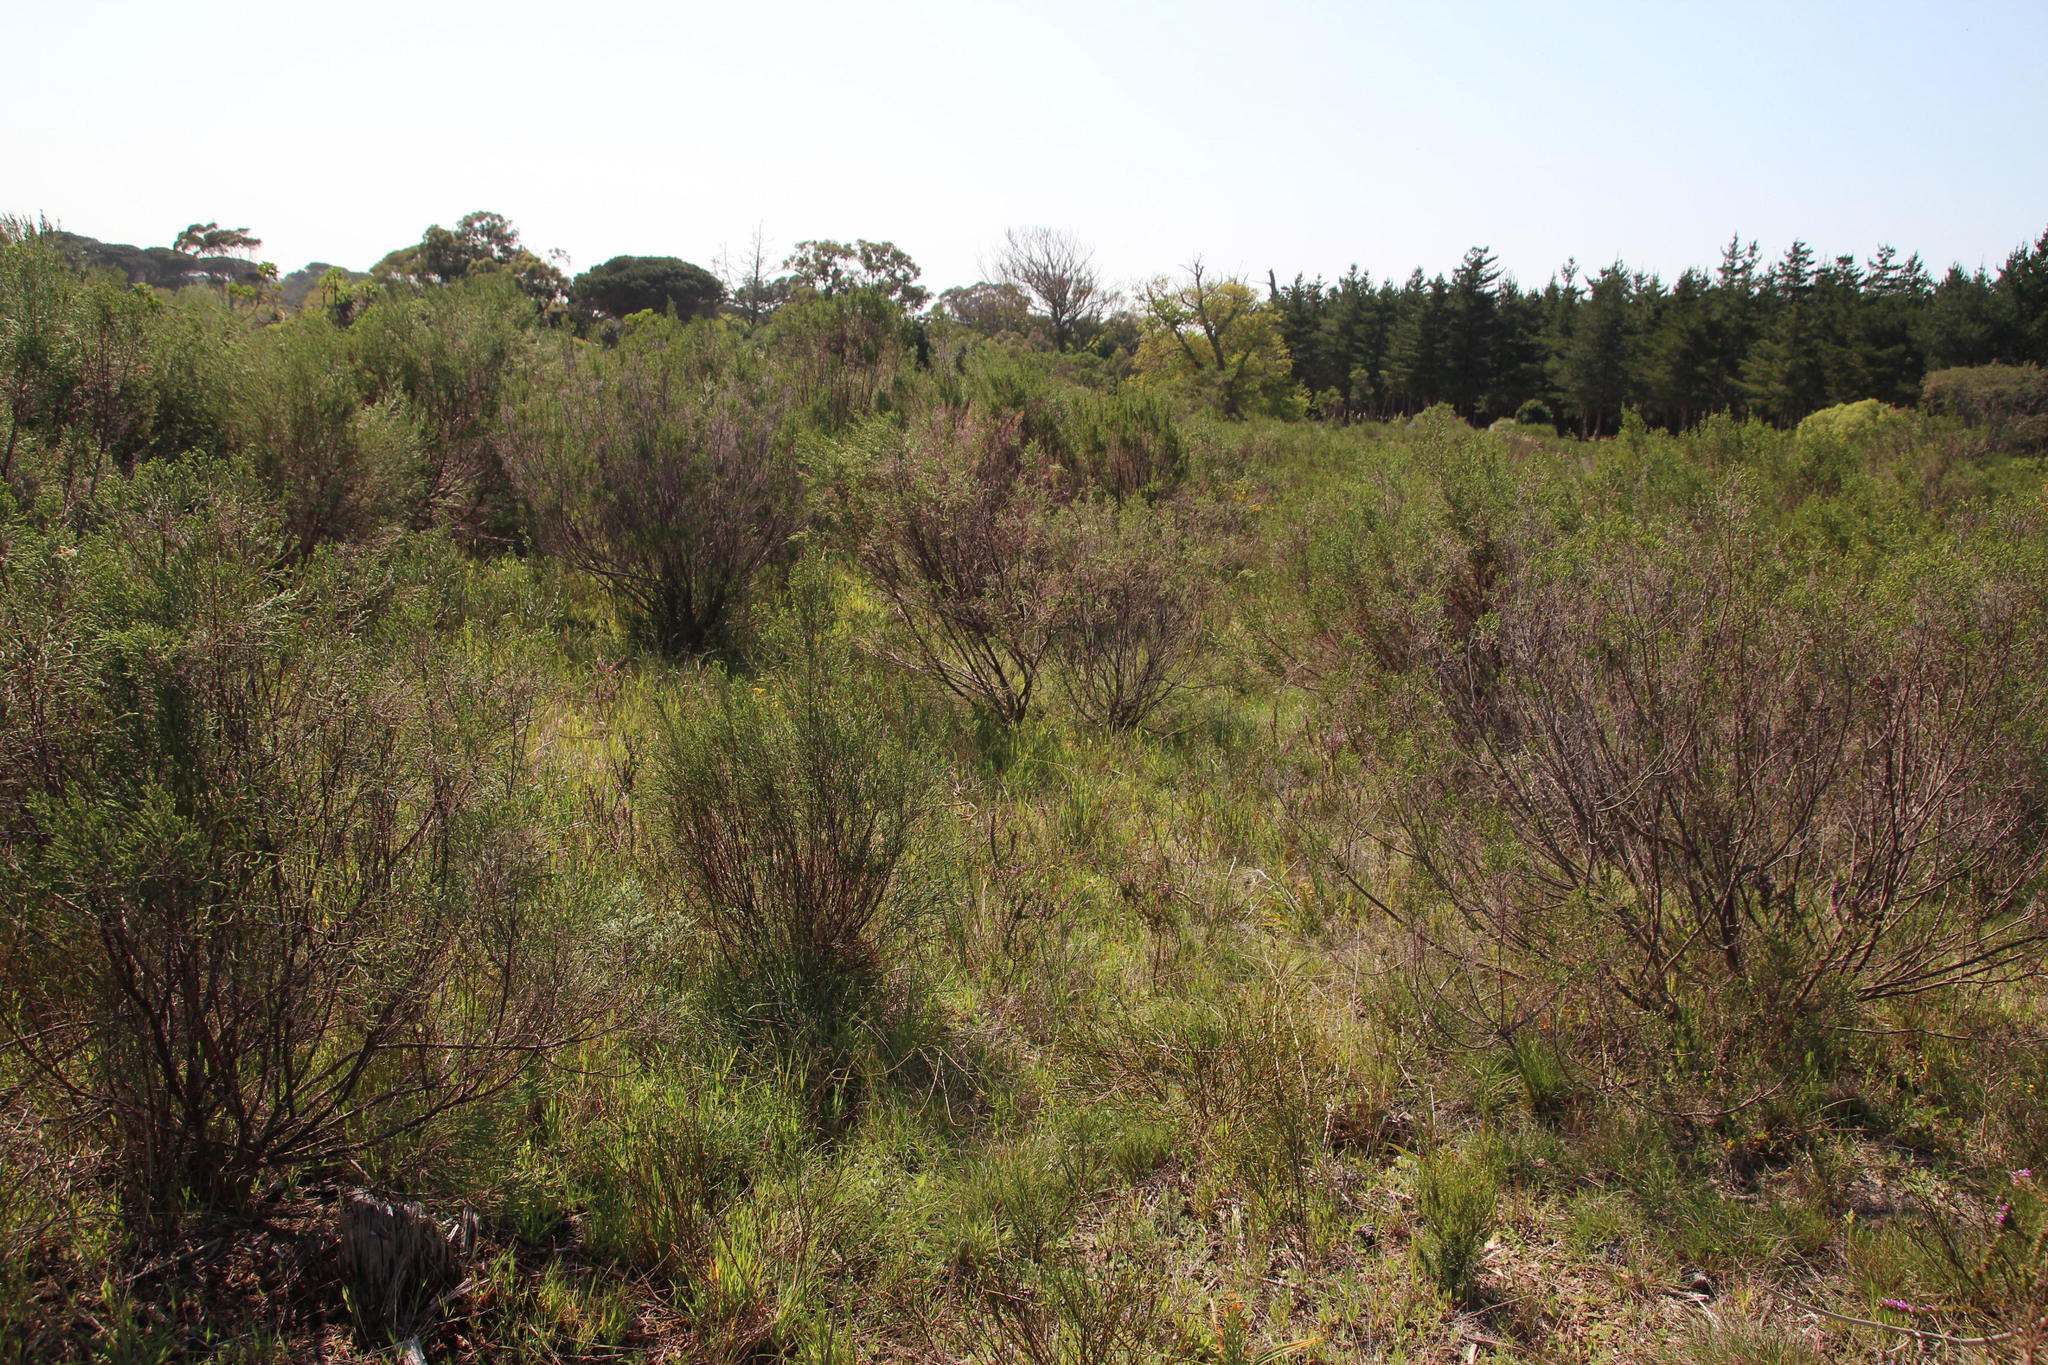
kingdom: Plantae
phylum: Tracheophyta
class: Liliopsida
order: Poales
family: Poaceae
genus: Briza
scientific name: Briza maxima
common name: Big quakinggrass
